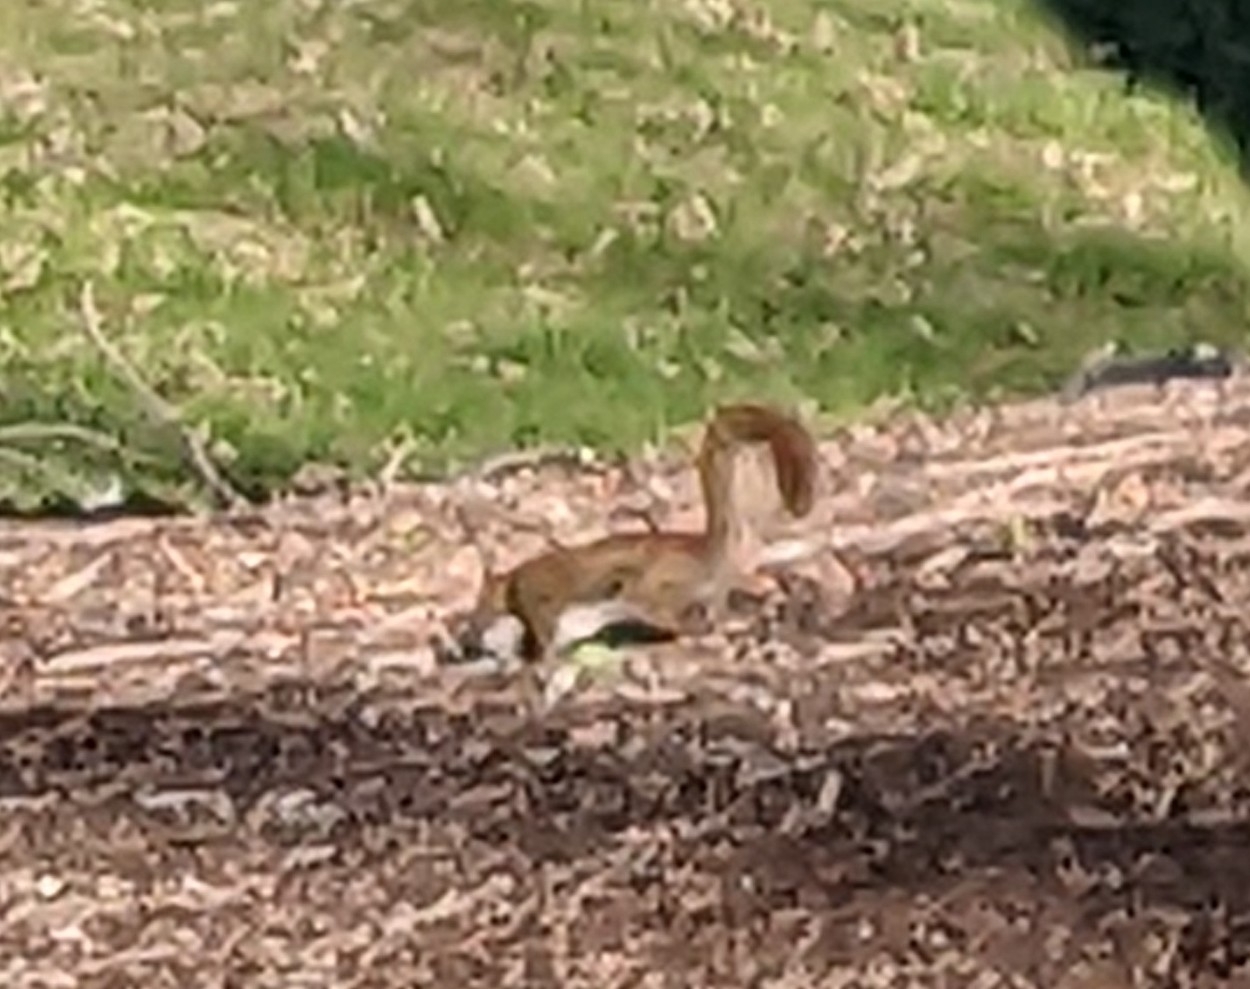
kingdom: Animalia
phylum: Chordata
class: Mammalia
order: Rodentia
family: Sciuridae
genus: Tamiasciurus
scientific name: Tamiasciurus hudsonicus
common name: Red squirrel
